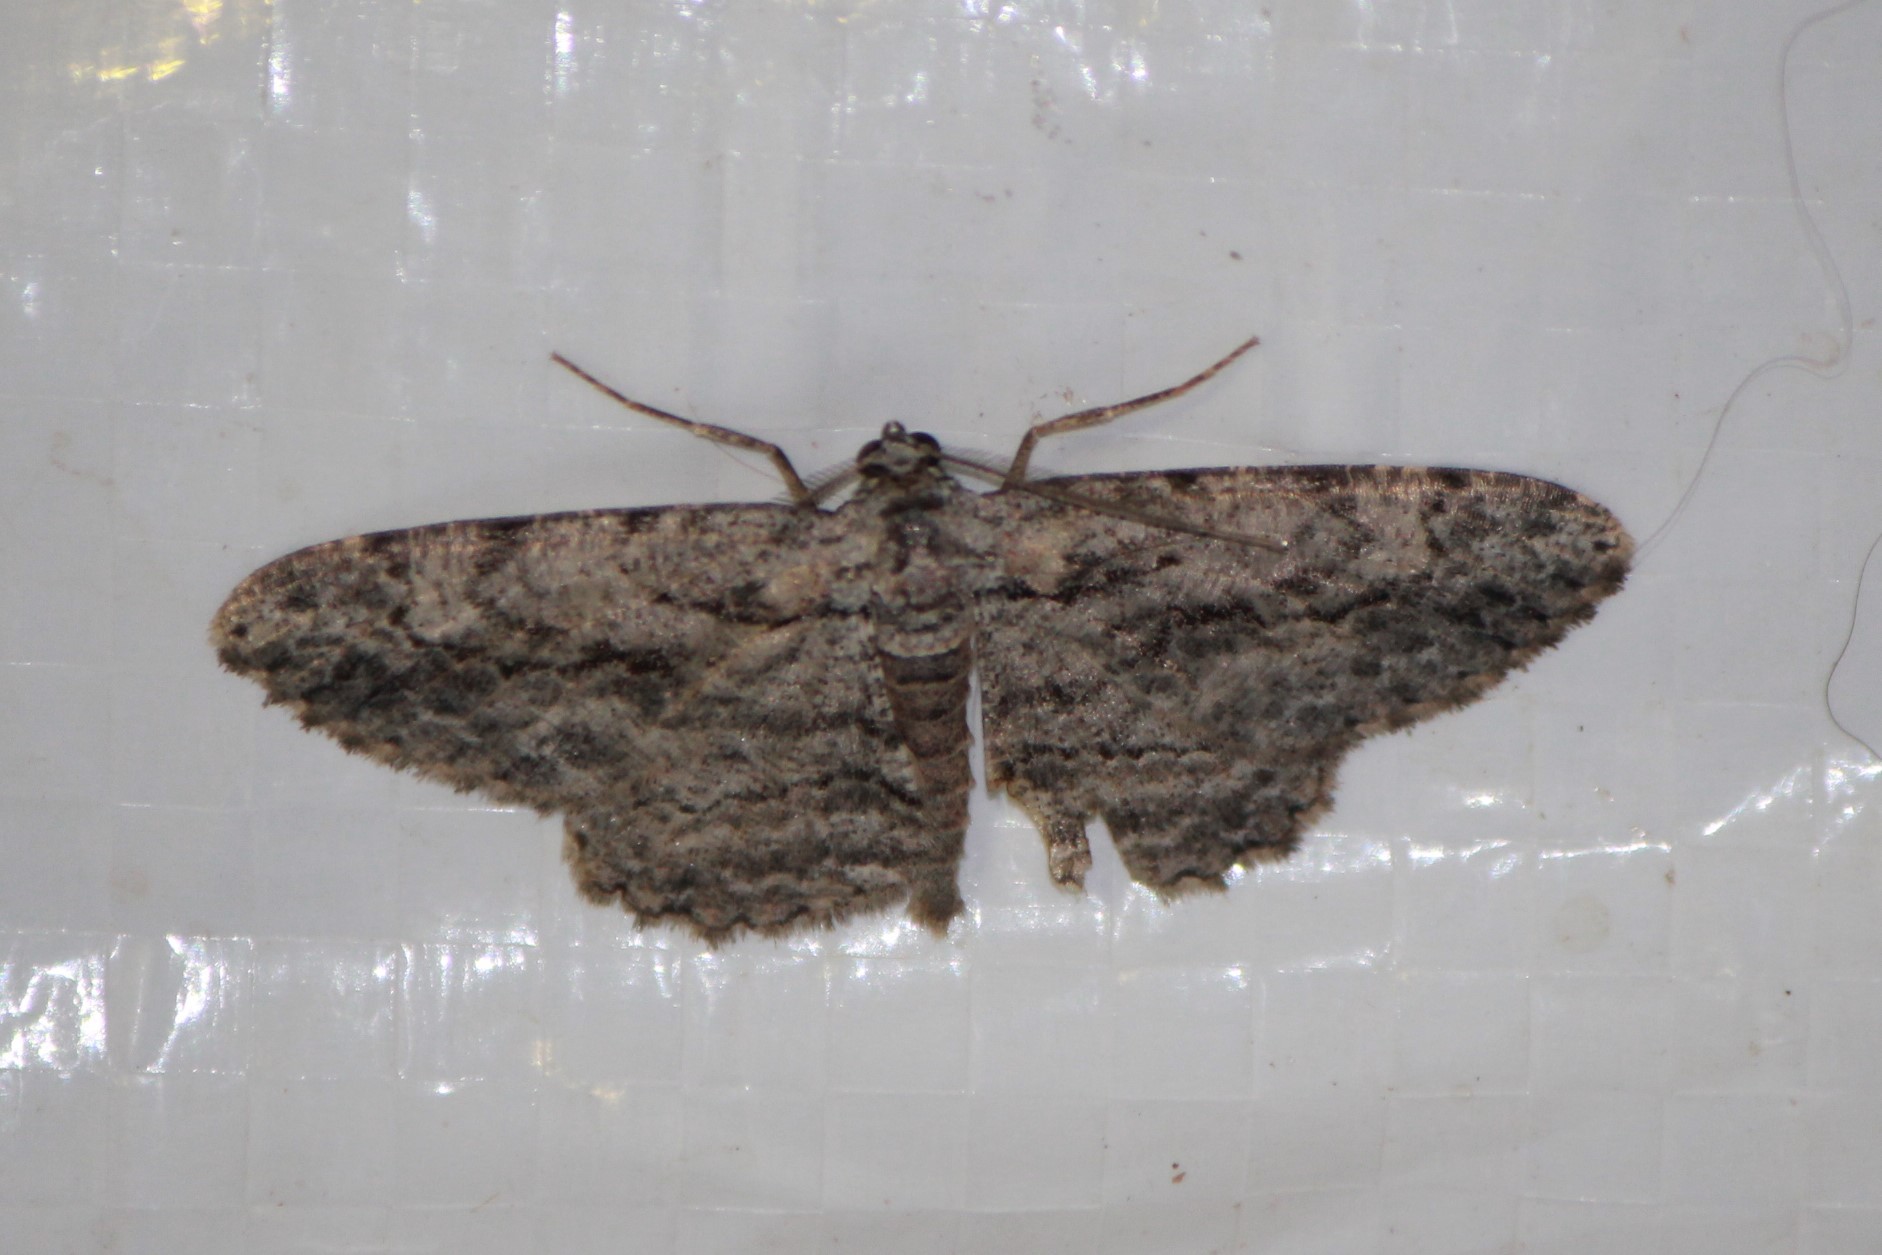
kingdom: Animalia
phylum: Arthropoda
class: Insecta
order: Lepidoptera
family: Geometridae
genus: Anavitrinella
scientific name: Anavitrinella pampinaria
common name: Common gray
